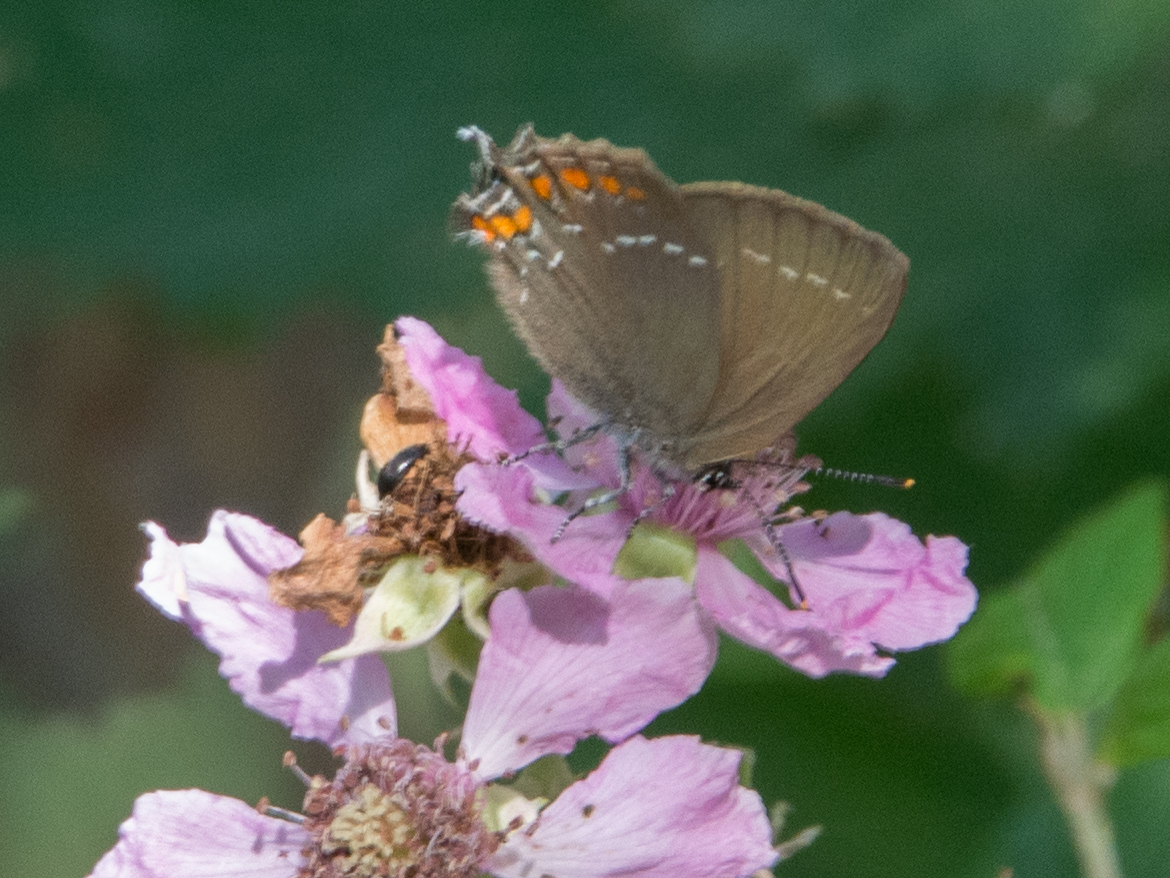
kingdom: Animalia
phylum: Arthropoda
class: Insecta
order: Lepidoptera
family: Lycaenidae
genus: Nordmannia
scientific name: Nordmannia ilicis
